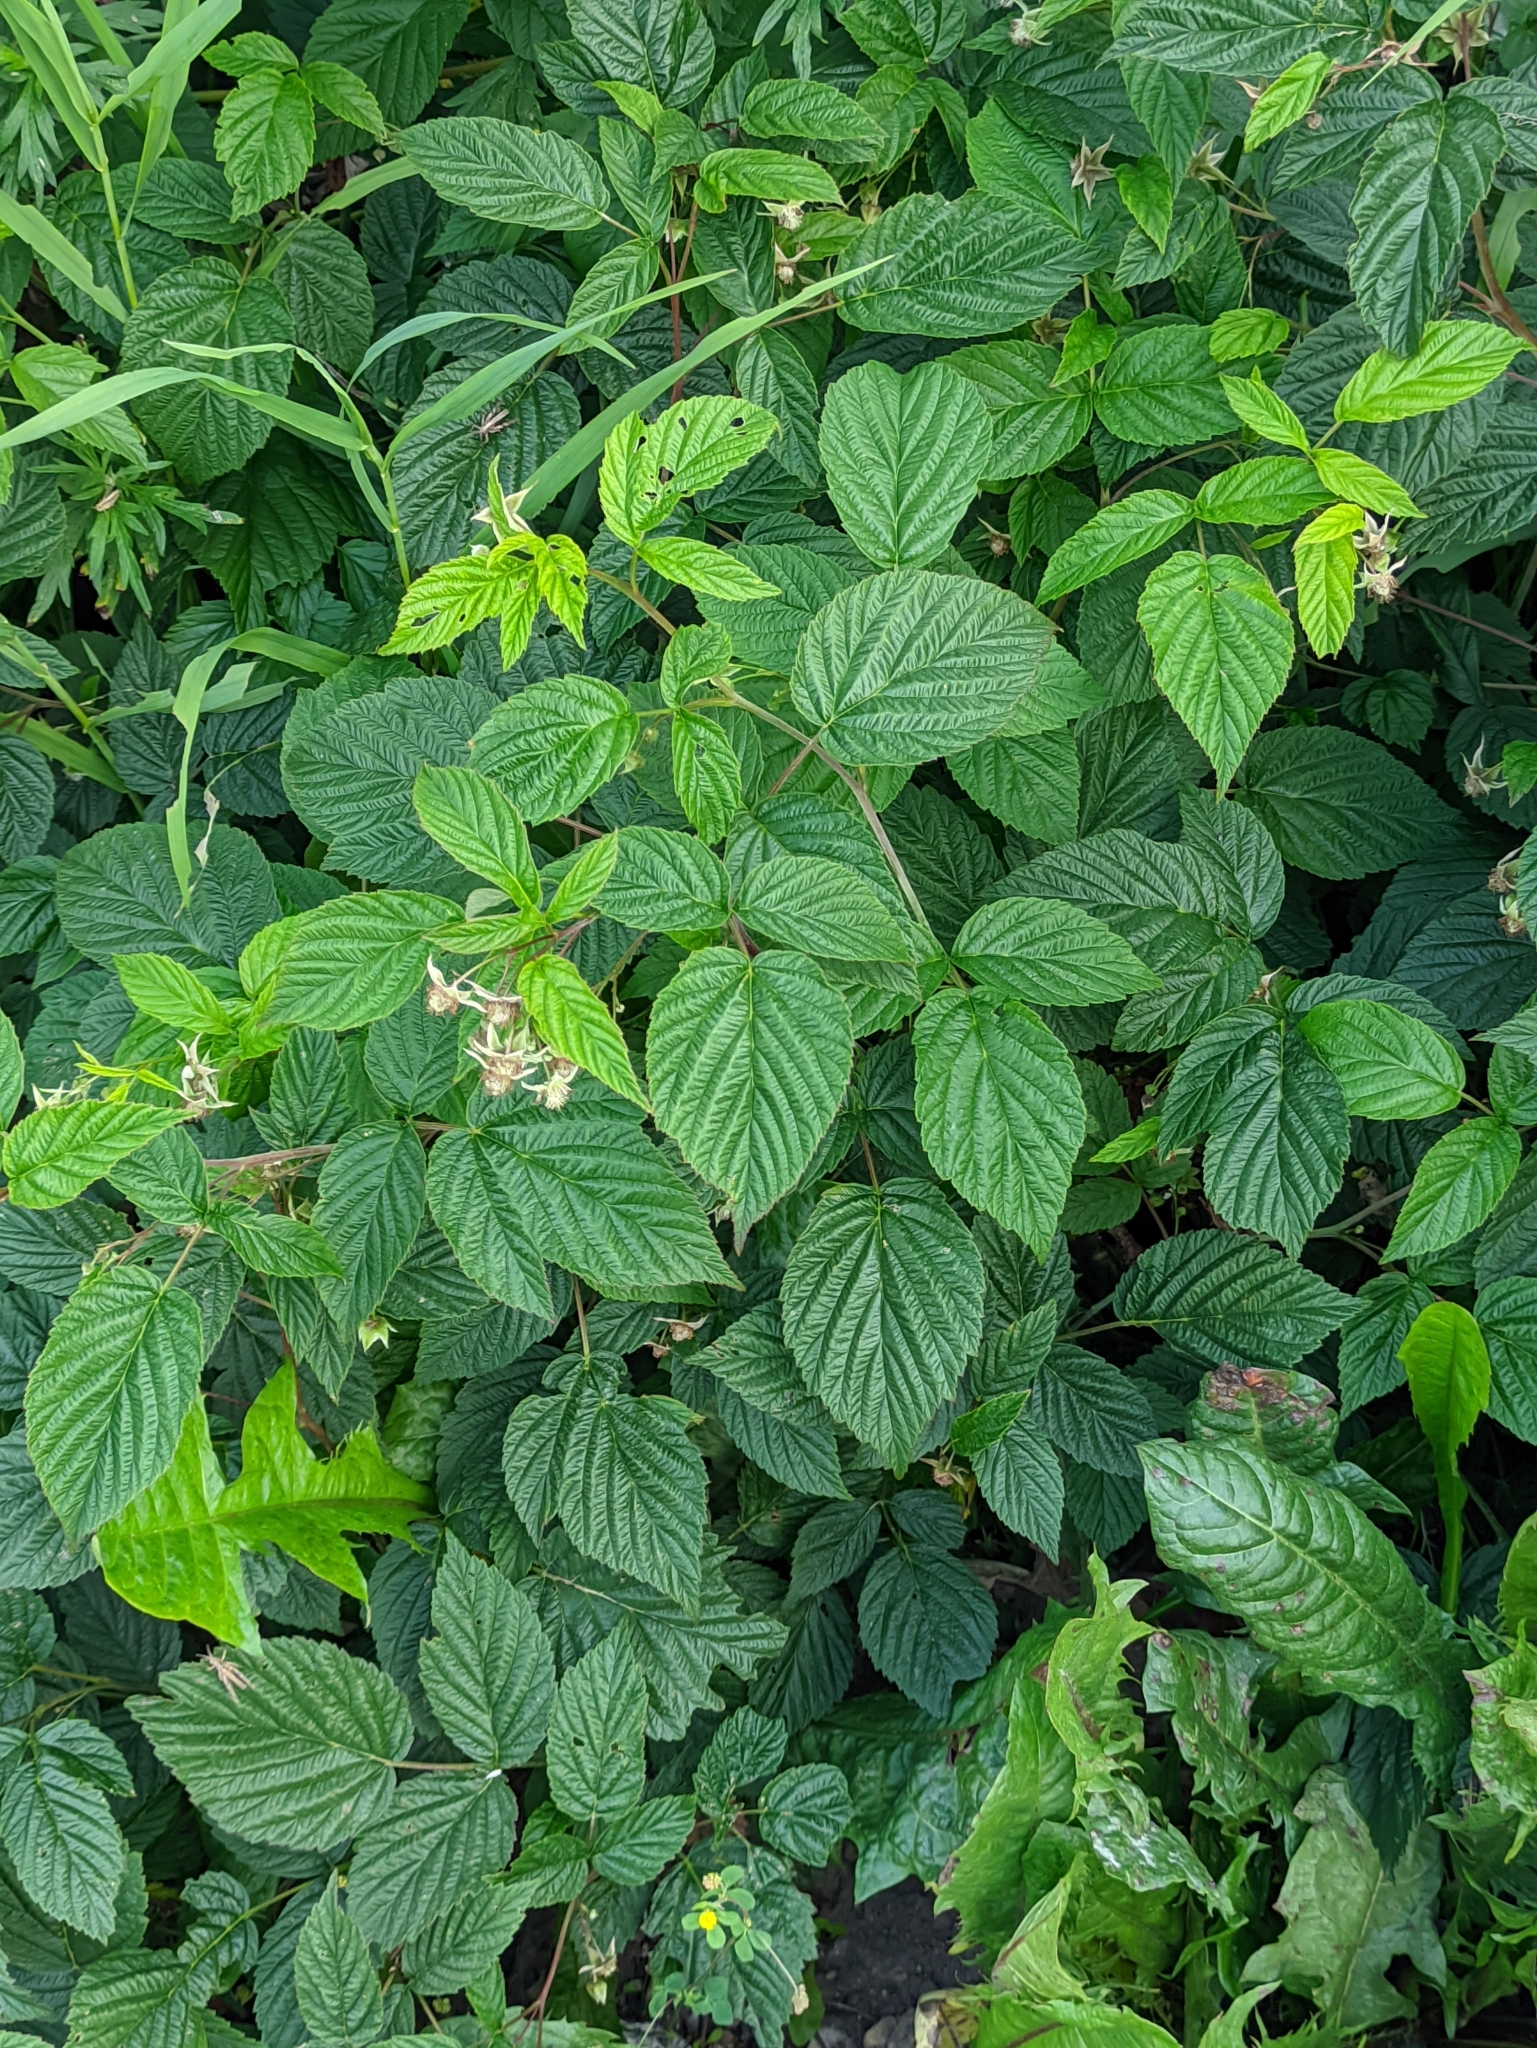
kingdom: Plantae
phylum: Tracheophyta
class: Magnoliopsida
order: Rosales
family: Rosaceae
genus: Rubus
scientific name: Rubus idaeus
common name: Raspberry
